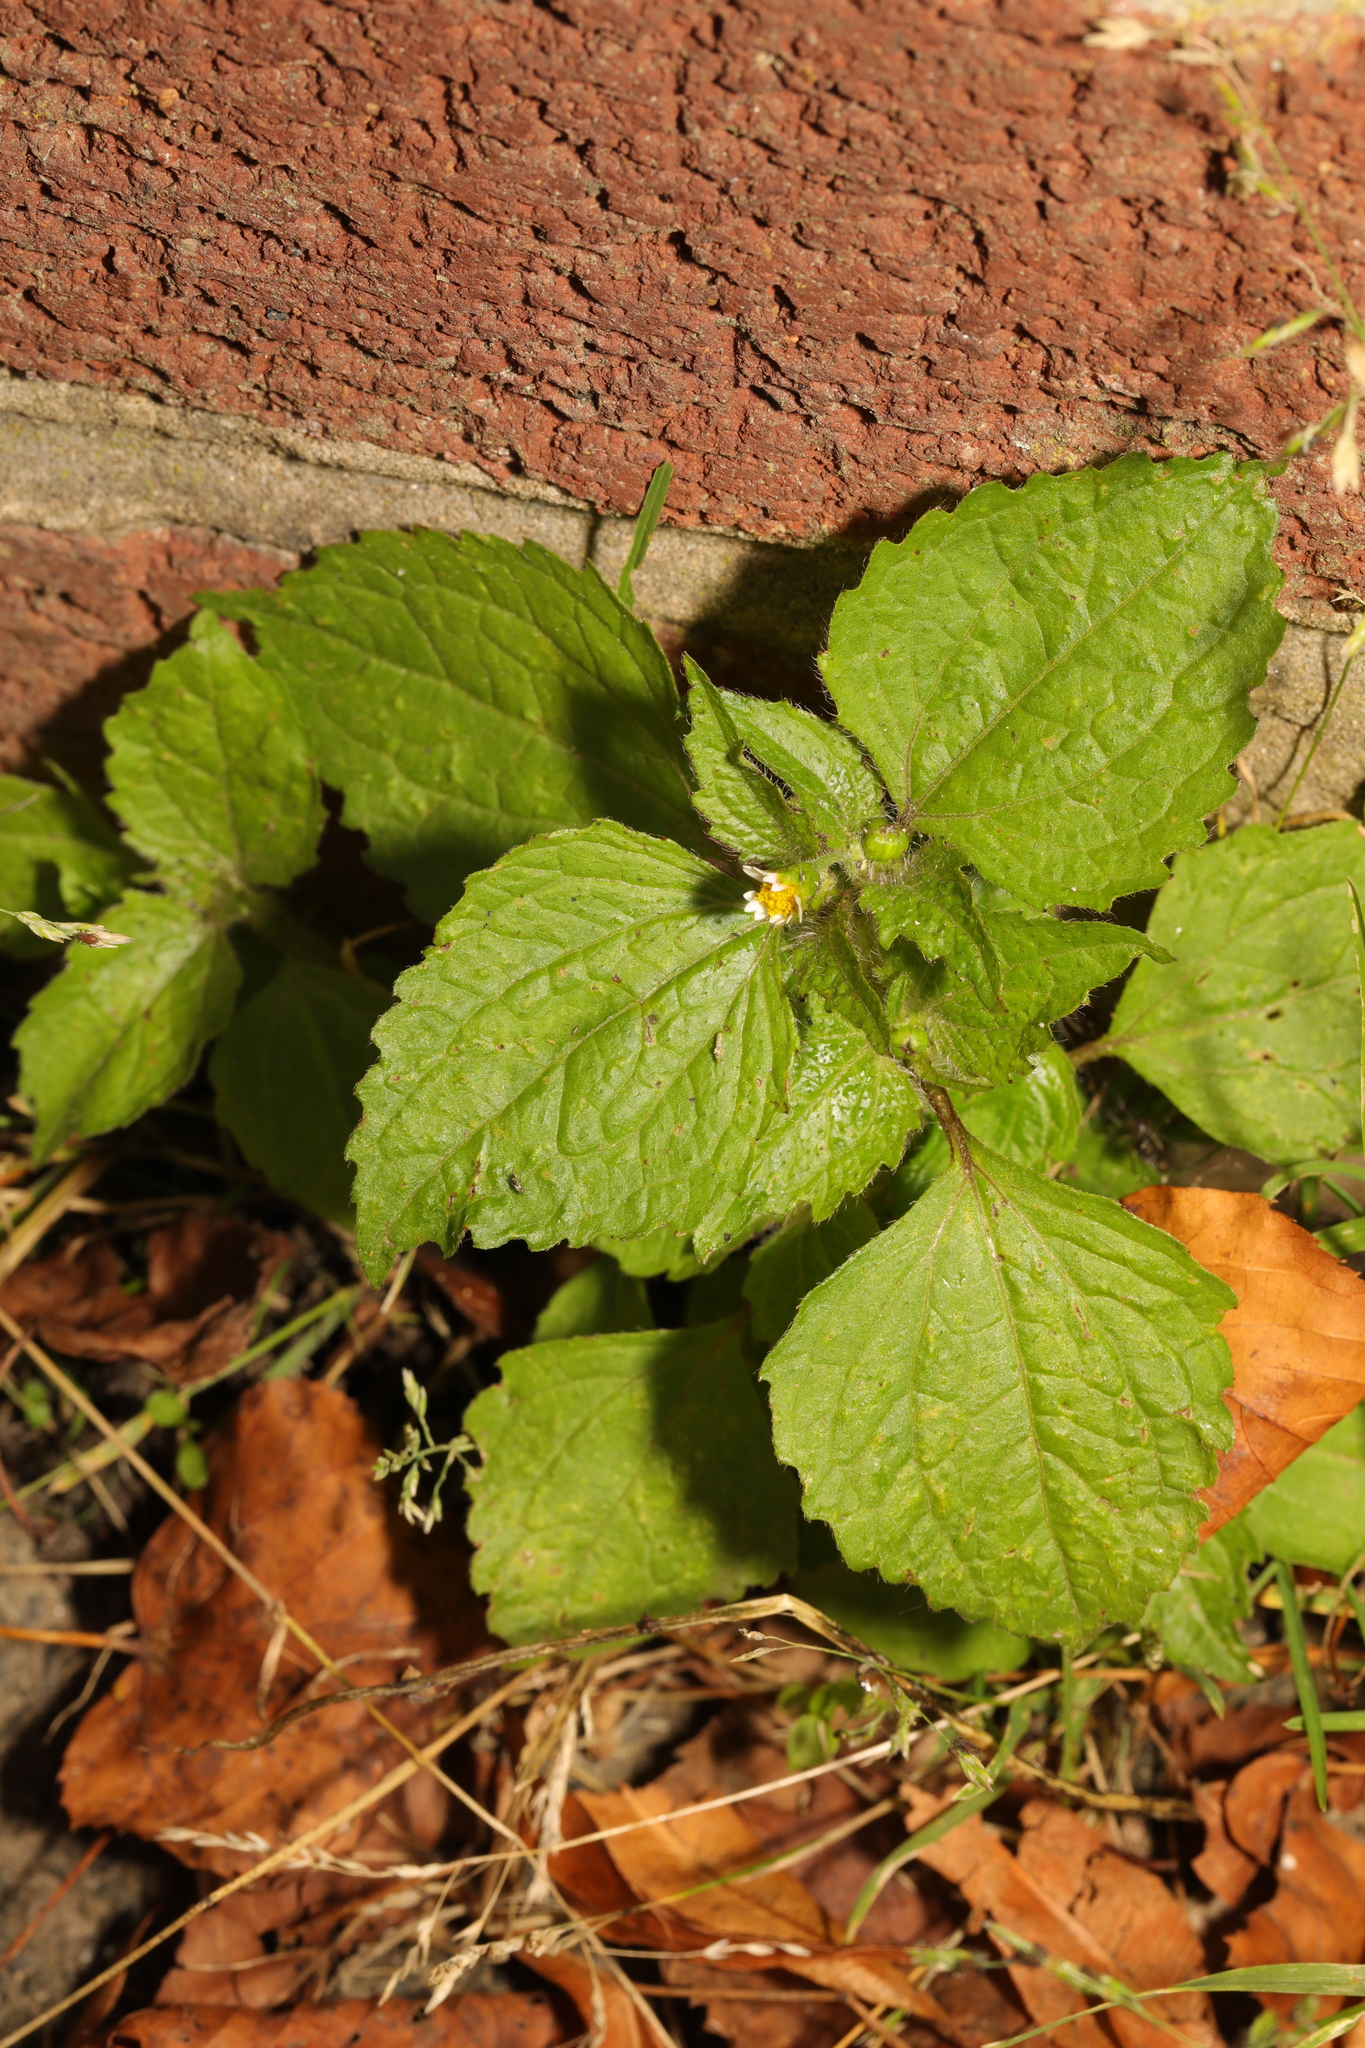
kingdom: Plantae
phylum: Tracheophyta
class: Magnoliopsida
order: Asterales
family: Asteraceae
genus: Galinsoga
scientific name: Galinsoga quadriradiata
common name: Shaggy soldier
